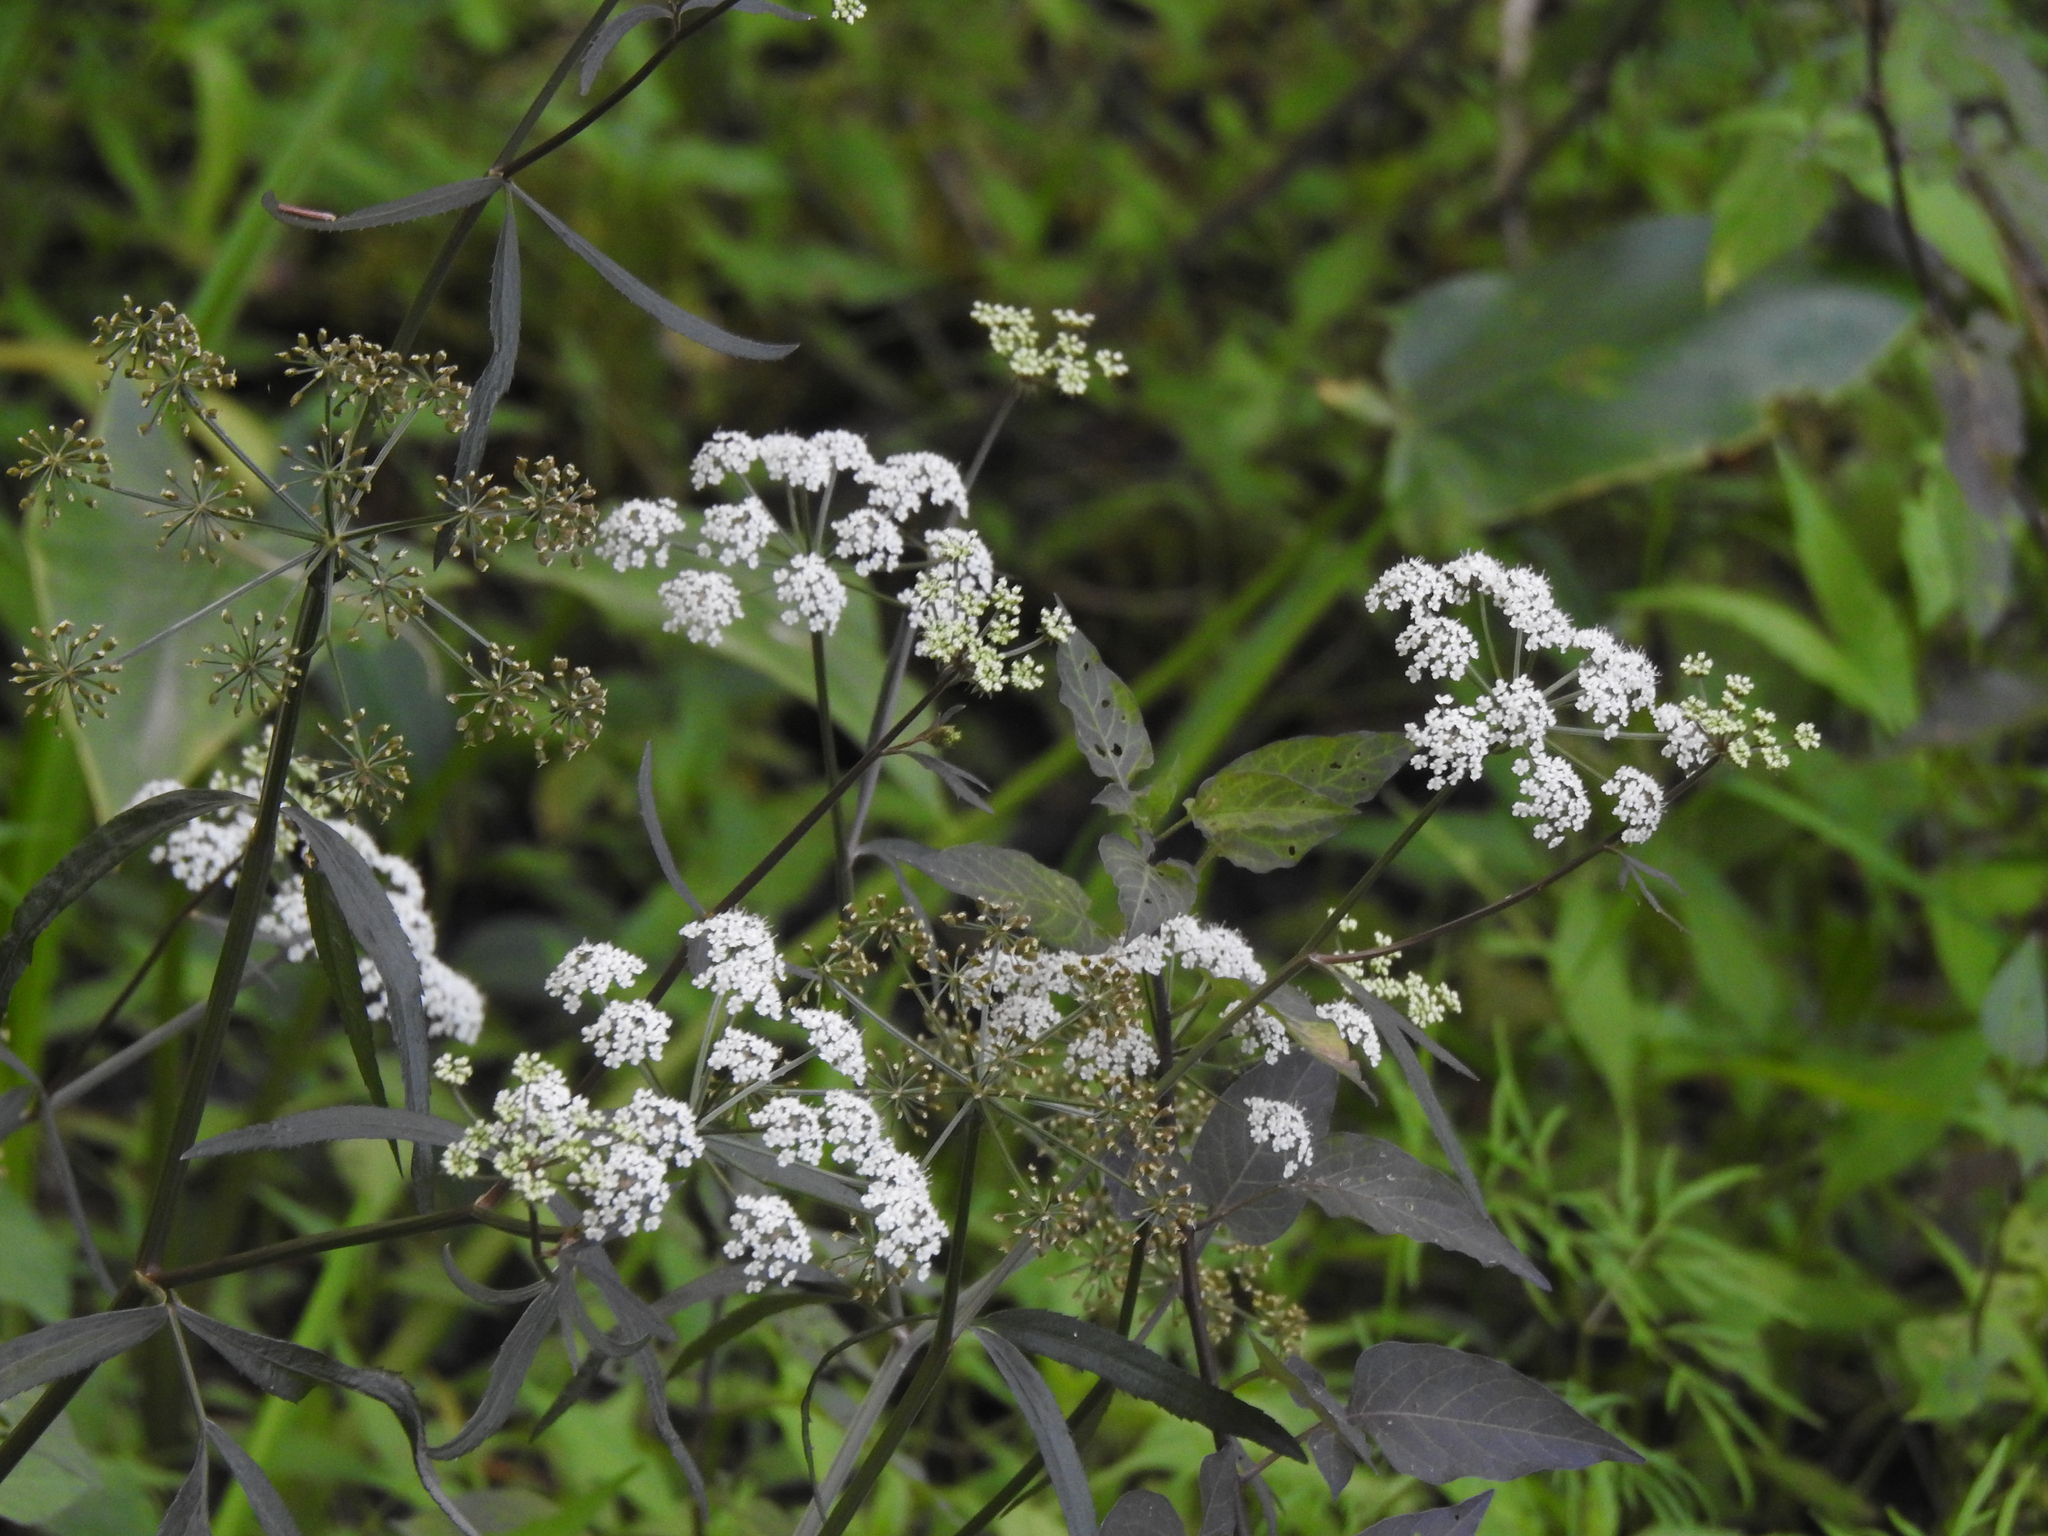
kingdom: Plantae
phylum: Tracheophyta
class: Magnoliopsida
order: Apiales
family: Apiaceae
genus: Cicuta
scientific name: Cicuta maculata
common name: Spotted cowbane
